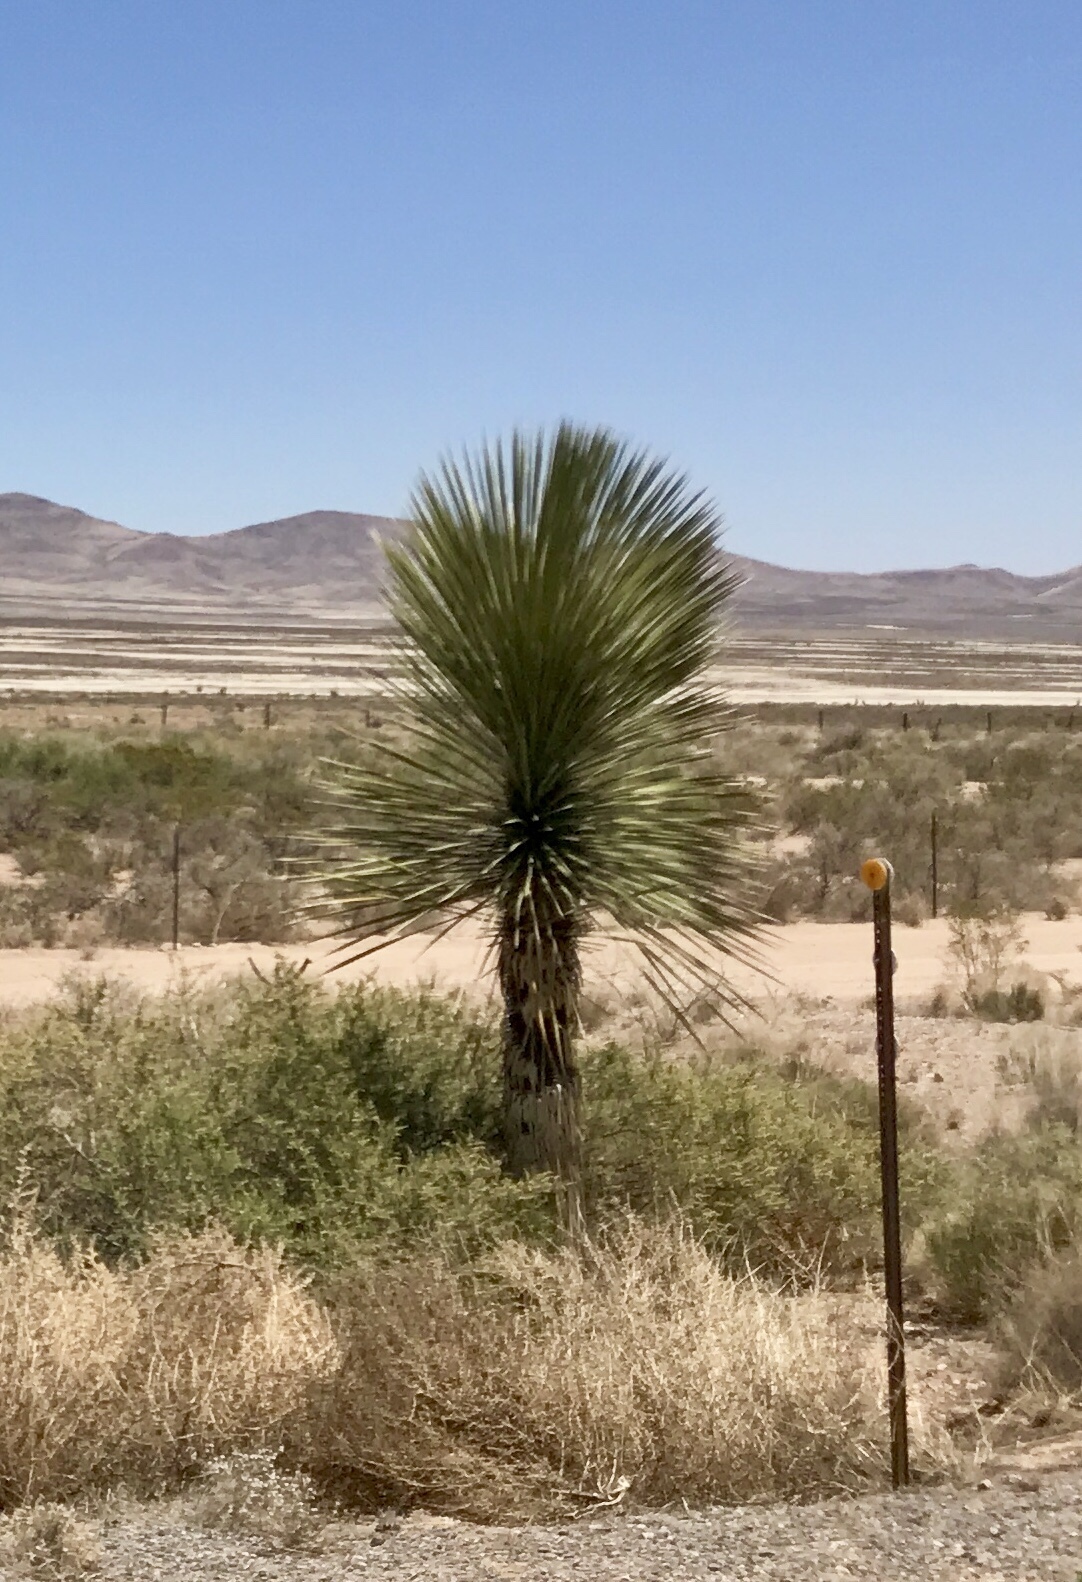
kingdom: Plantae
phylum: Tracheophyta
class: Liliopsida
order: Asparagales
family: Asparagaceae
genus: Yucca
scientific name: Yucca elata
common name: Palmella
